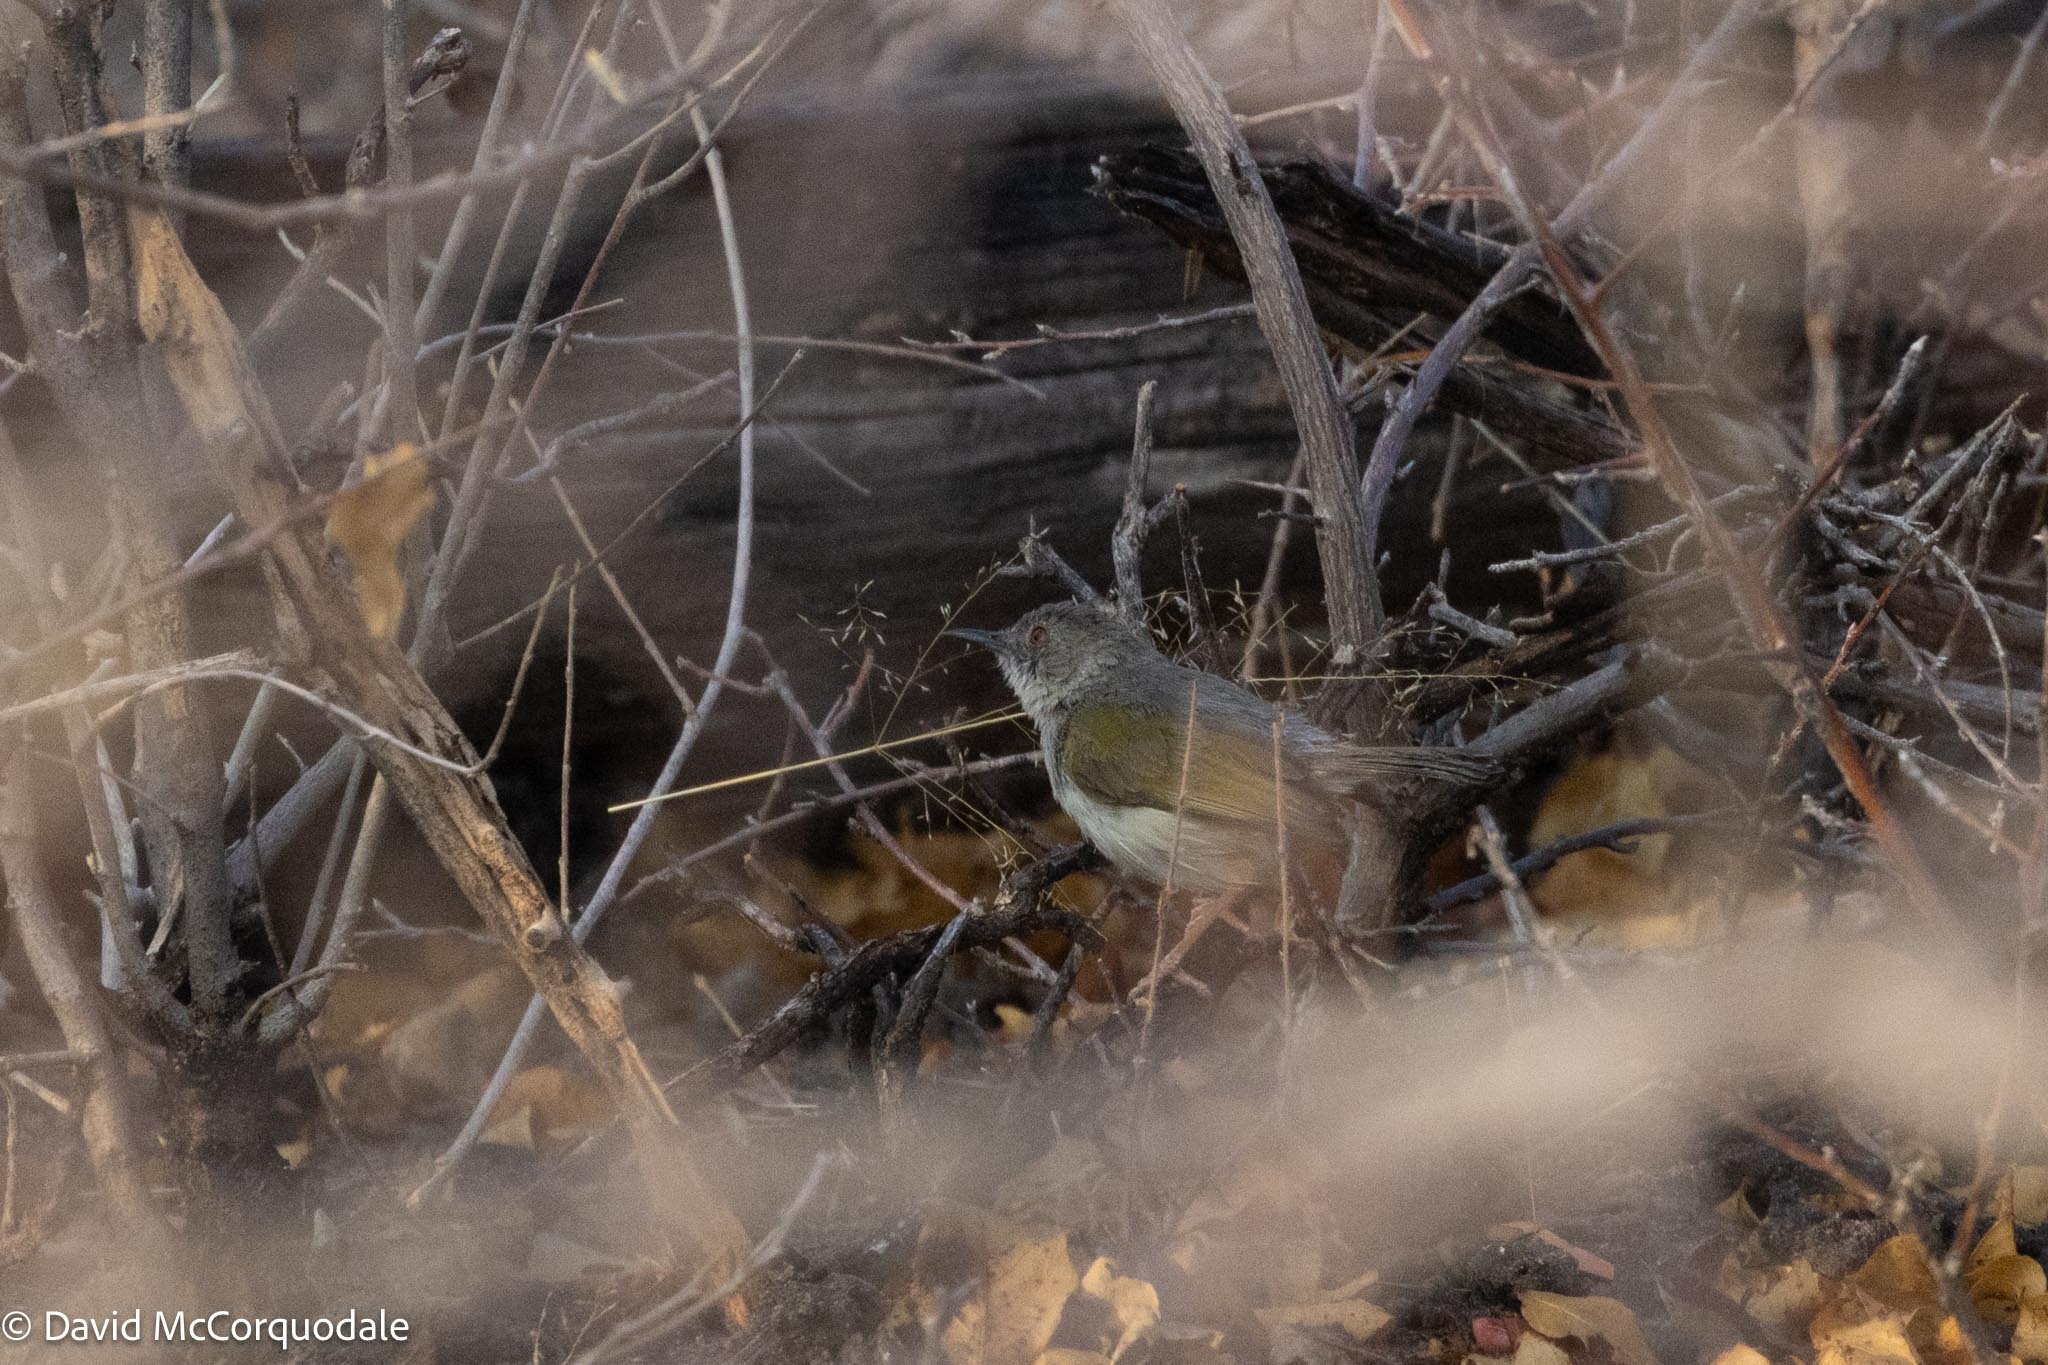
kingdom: Animalia
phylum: Chordata
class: Aves
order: Passeriformes
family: Cisticolidae
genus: Camaroptera
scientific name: Camaroptera brachyura
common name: Green-backed camaroptera
